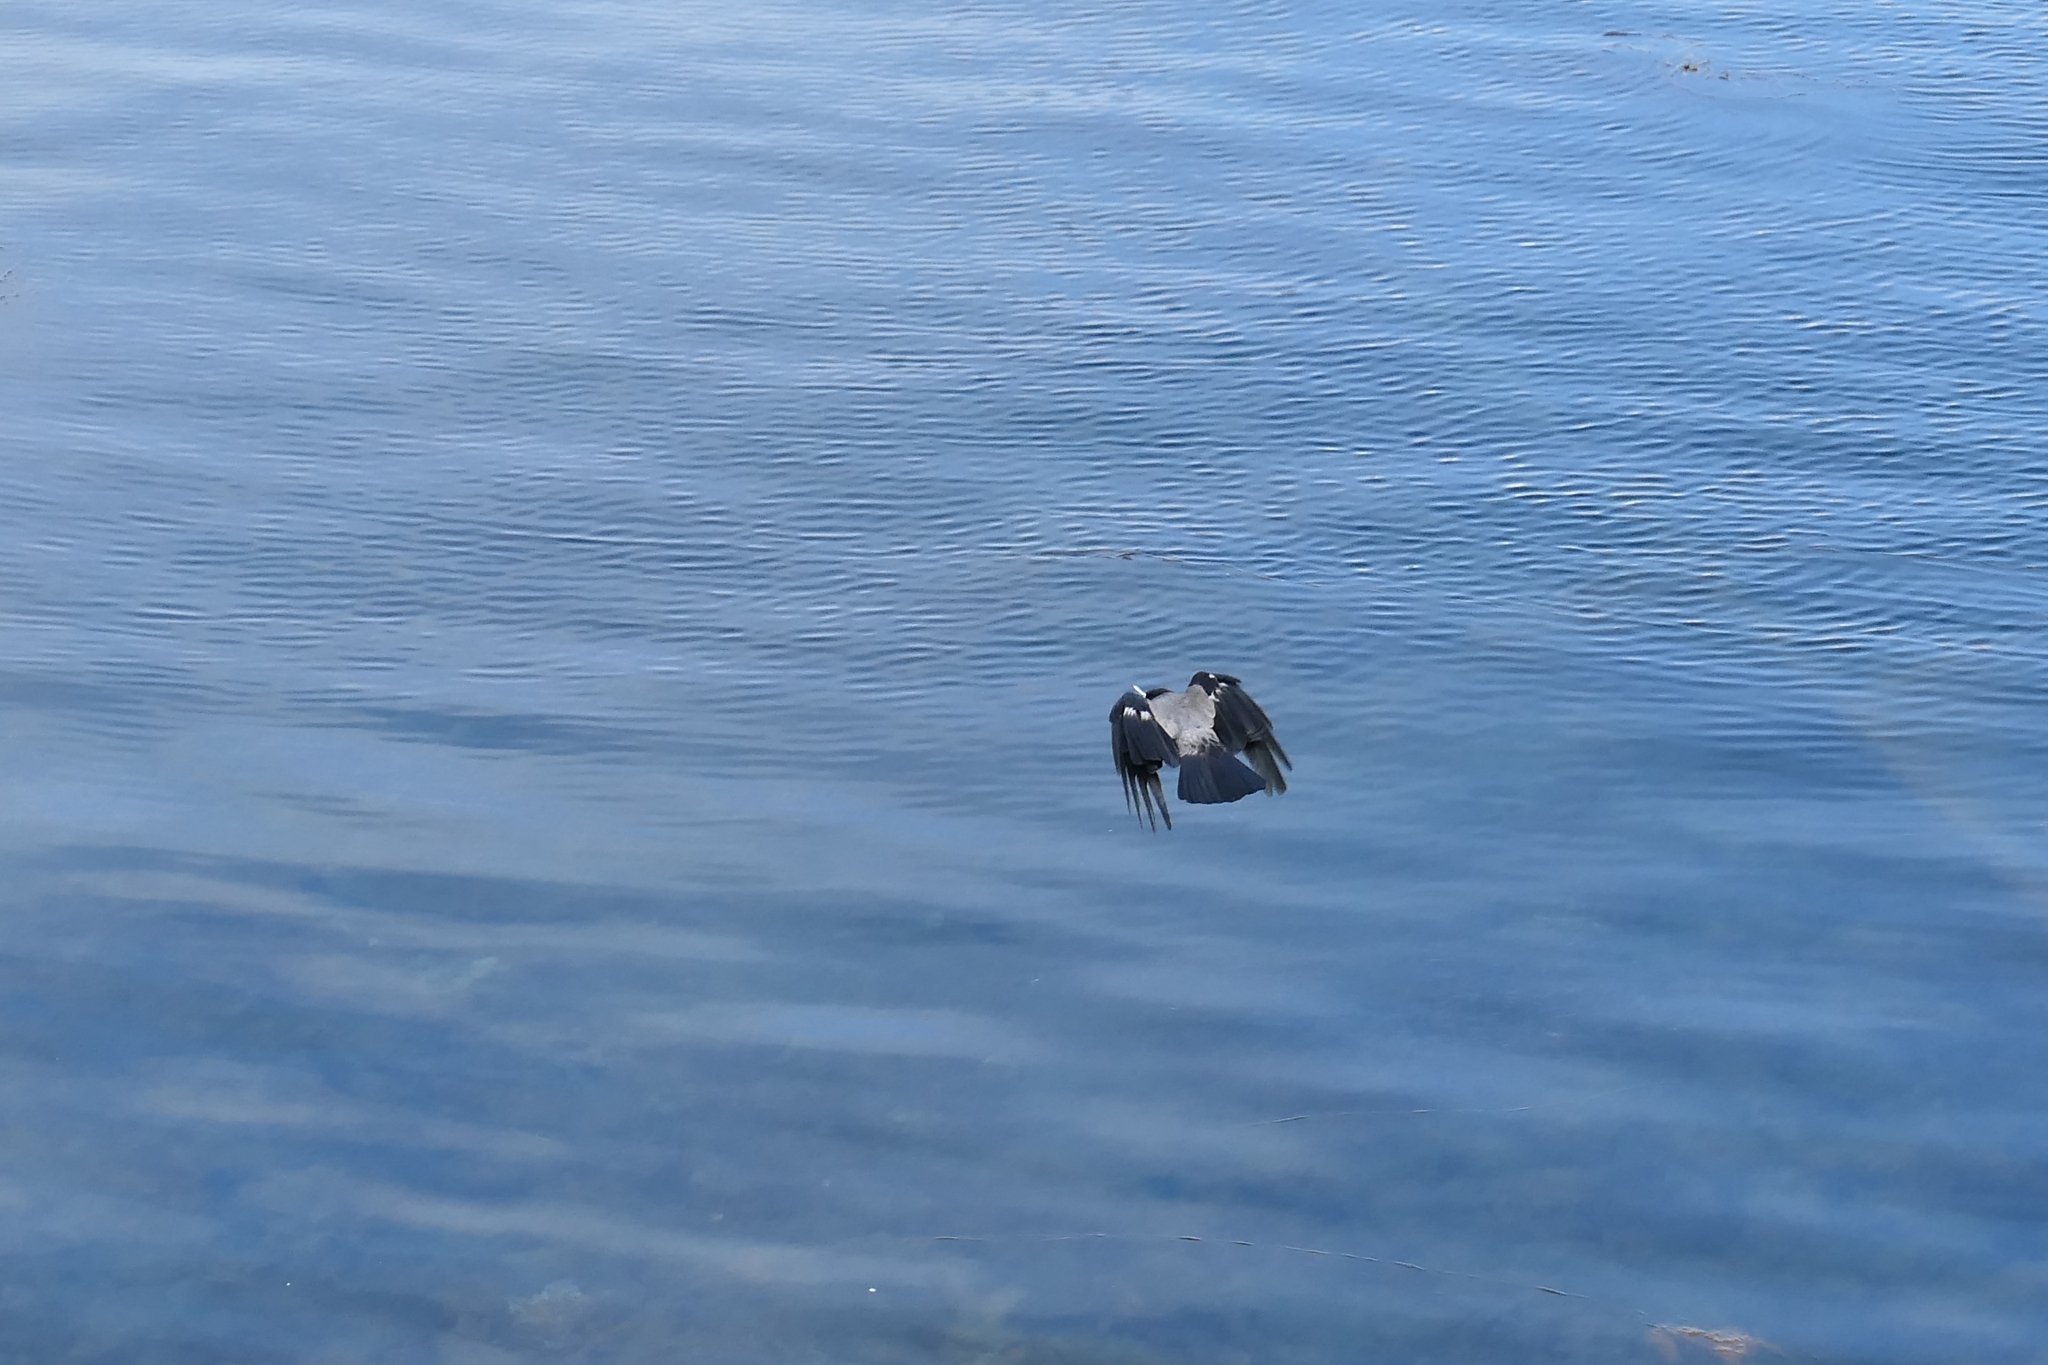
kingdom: Animalia
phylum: Chordata
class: Aves
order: Passeriformes
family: Corvidae
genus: Corvus
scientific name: Corvus cornix
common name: Hooded crow
